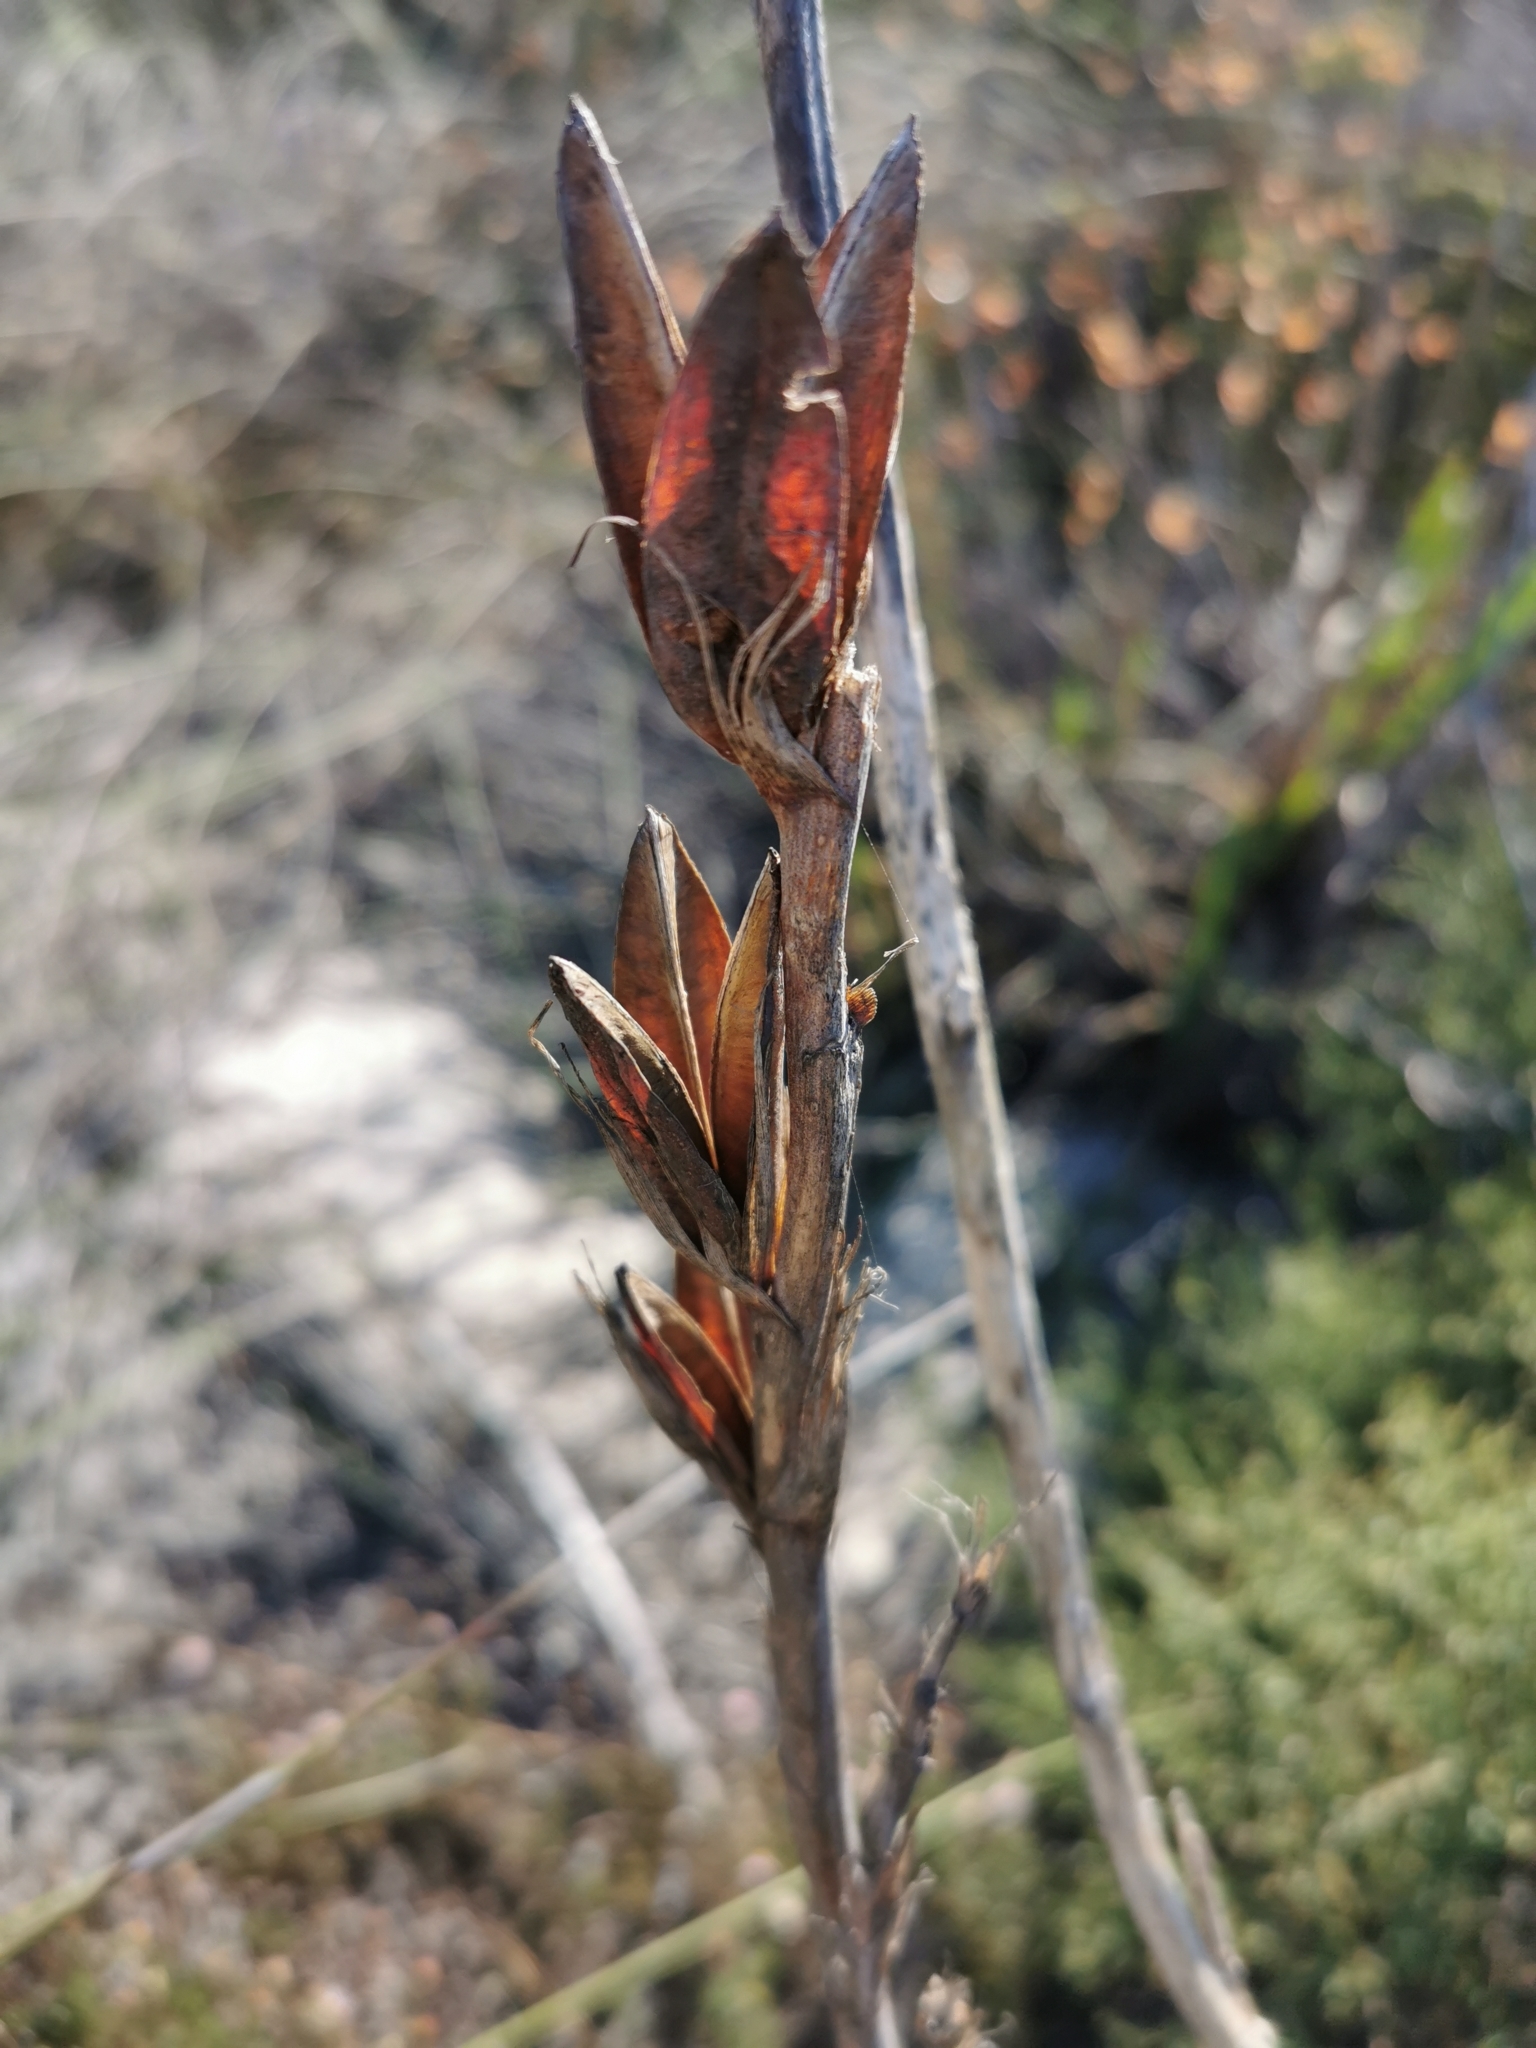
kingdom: Plantae
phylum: Tracheophyta
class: Liliopsida
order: Asparagales
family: Iridaceae
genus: Watsonia
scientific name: Watsonia meriana
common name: Bulbil bugle-lily
